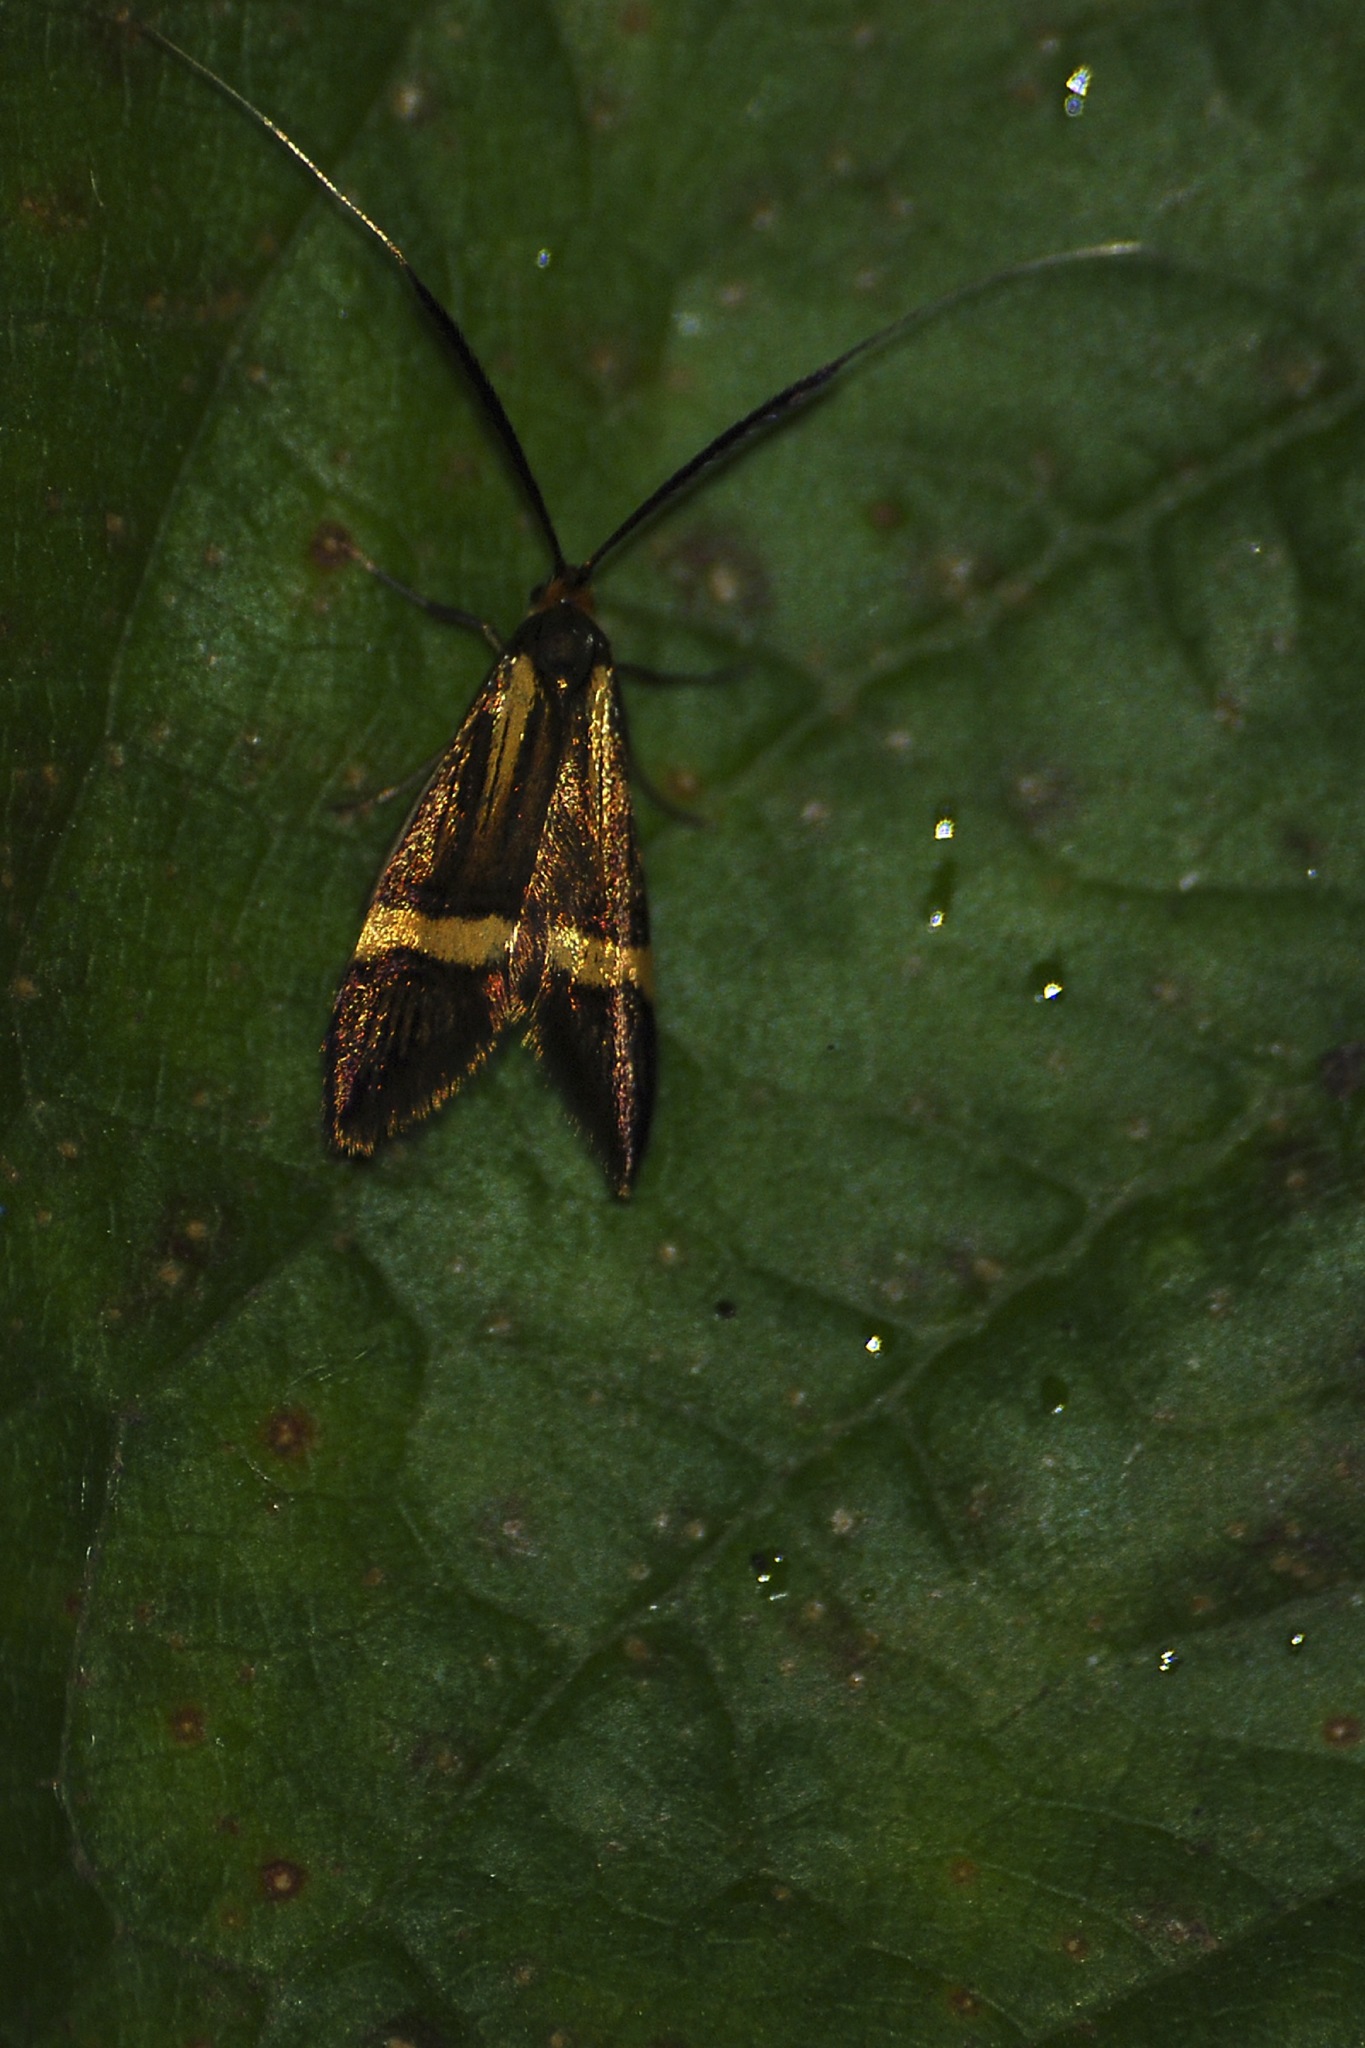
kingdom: Animalia
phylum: Arthropoda
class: Insecta
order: Lepidoptera
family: Adelidae
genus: Nemophora
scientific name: Nemophora degeerella
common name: Yellow-barred long-horn
